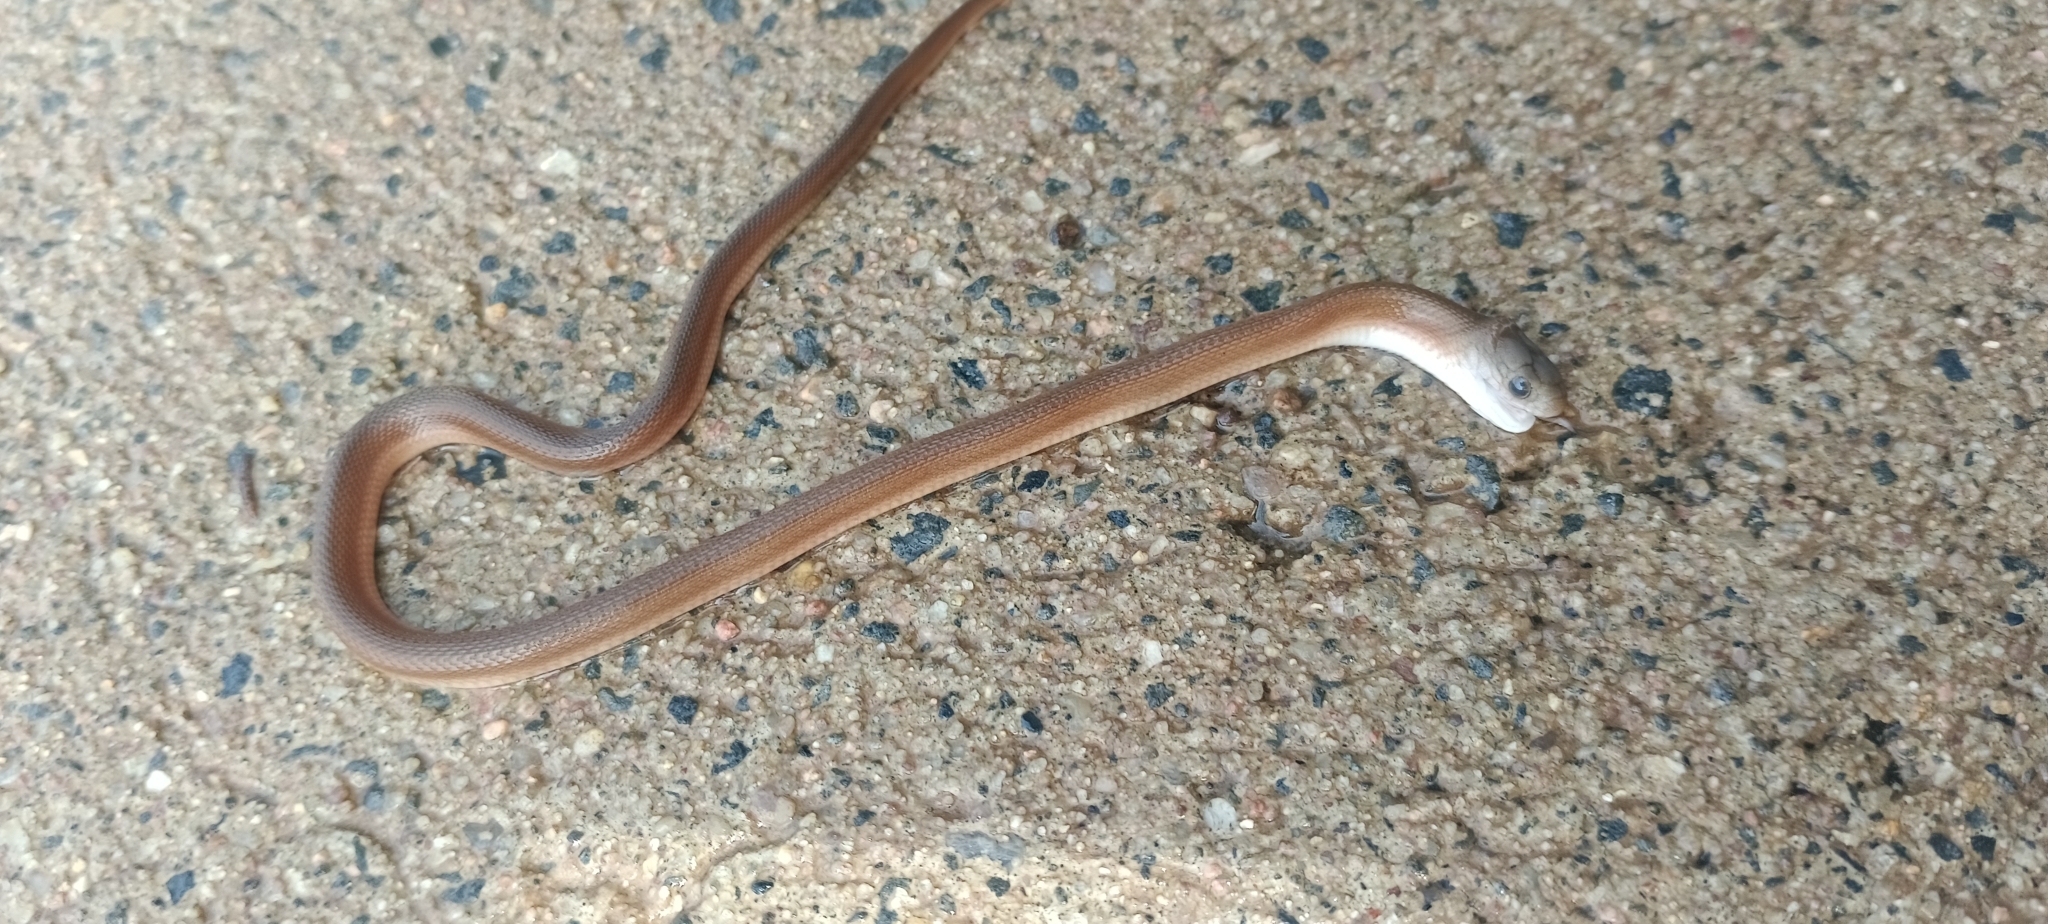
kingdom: Animalia
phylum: Chordata
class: Squamata
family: Colubridae
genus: Dasypeltis
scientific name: Dasypeltis inornata
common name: Southern brown egg eater
